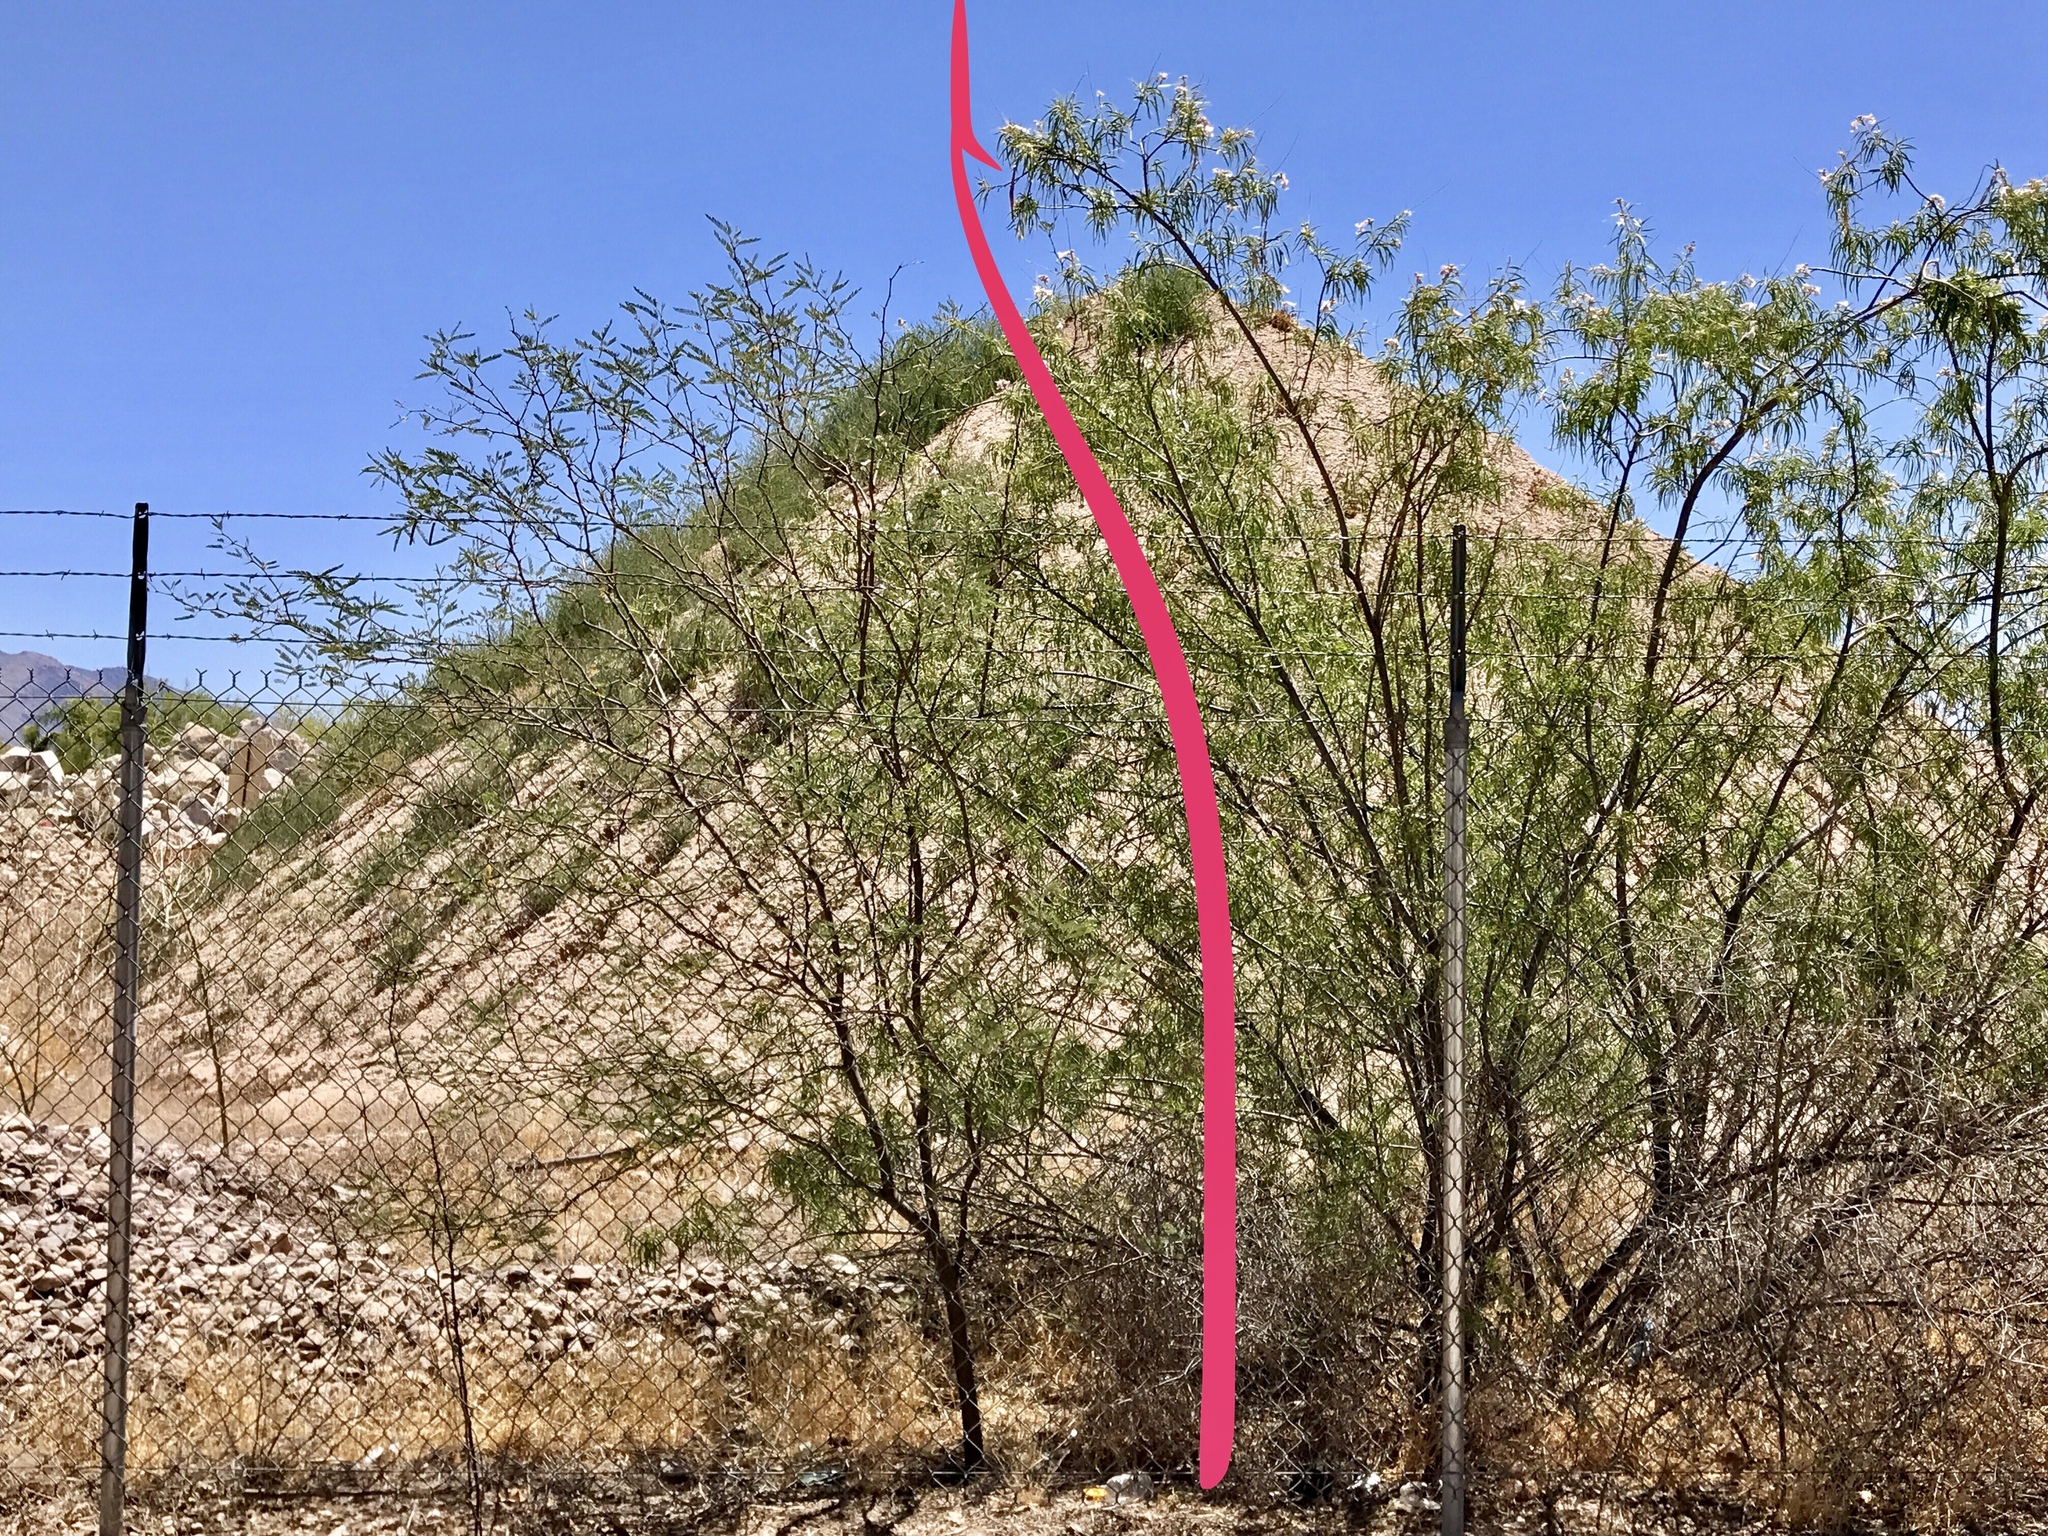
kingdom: Plantae
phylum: Tracheophyta
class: Magnoliopsida
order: Fabales
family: Fabaceae
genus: Prosopis
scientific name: Prosopis velutina
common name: Velvet mesquite
